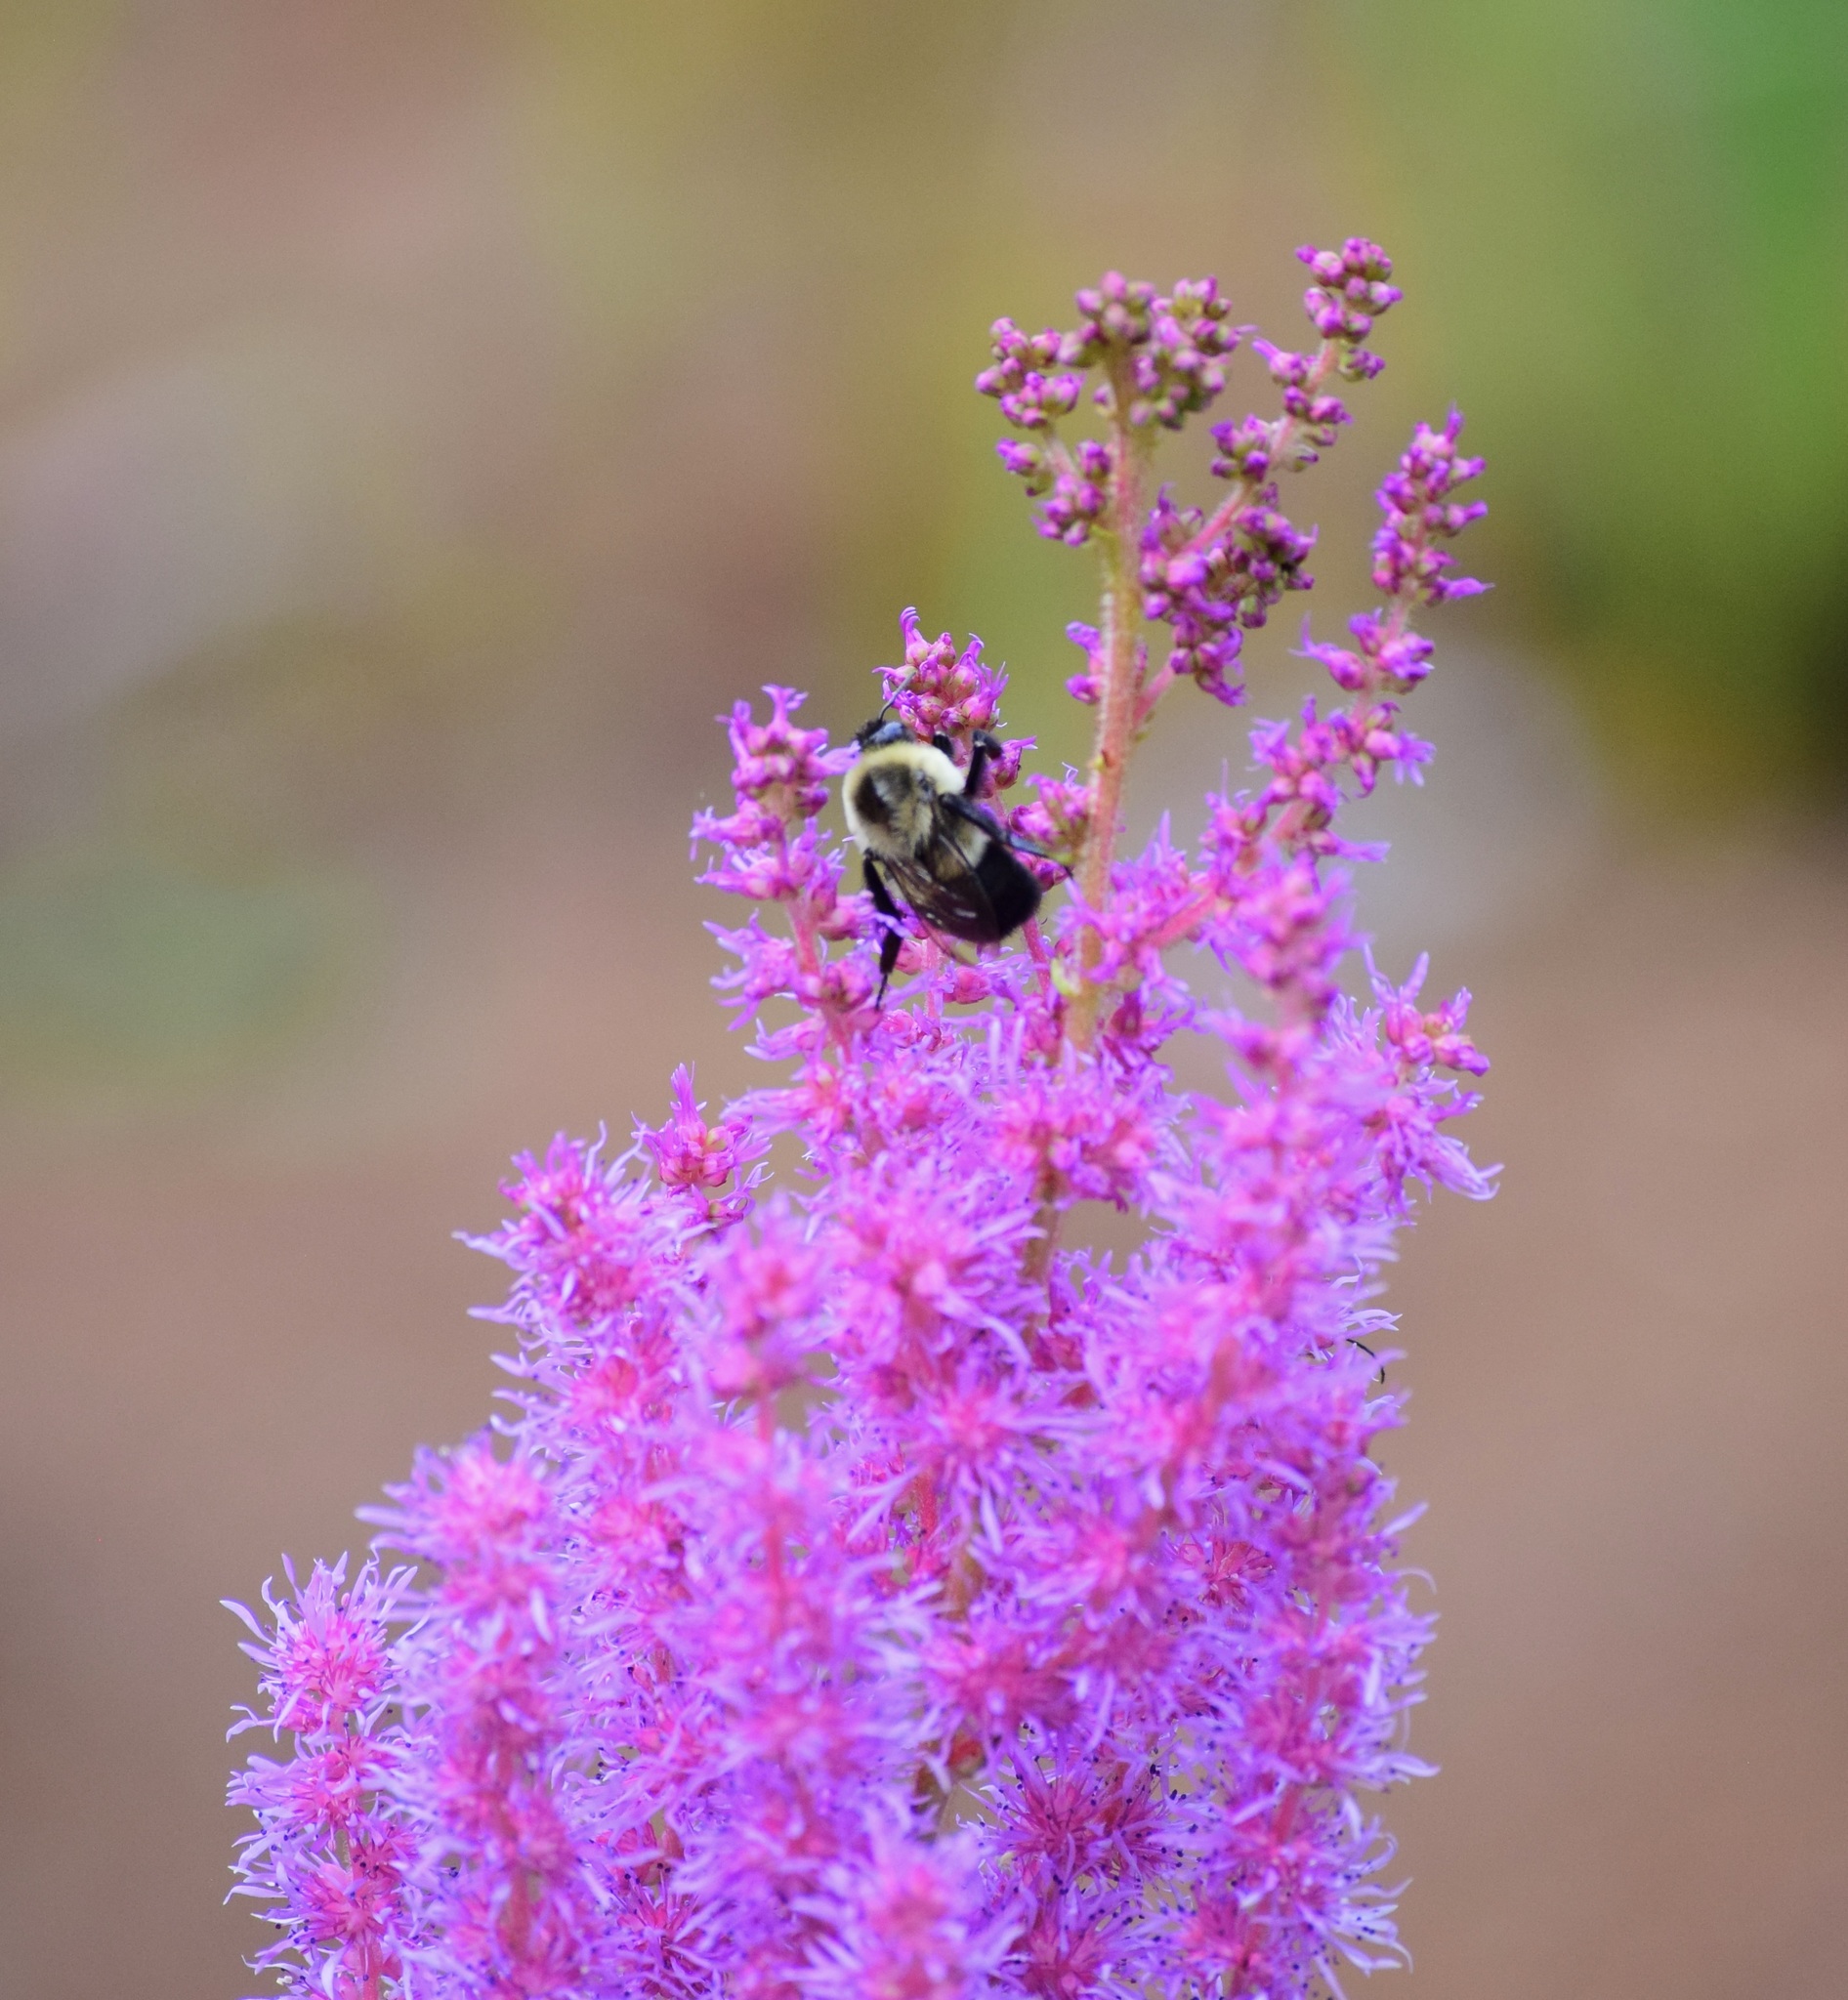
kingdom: Animalia
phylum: Arthropoda
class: Insecta
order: Hymenoptera
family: Apidae
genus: Bombus
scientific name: Bombus impatiens
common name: Common eastern bumble bee
